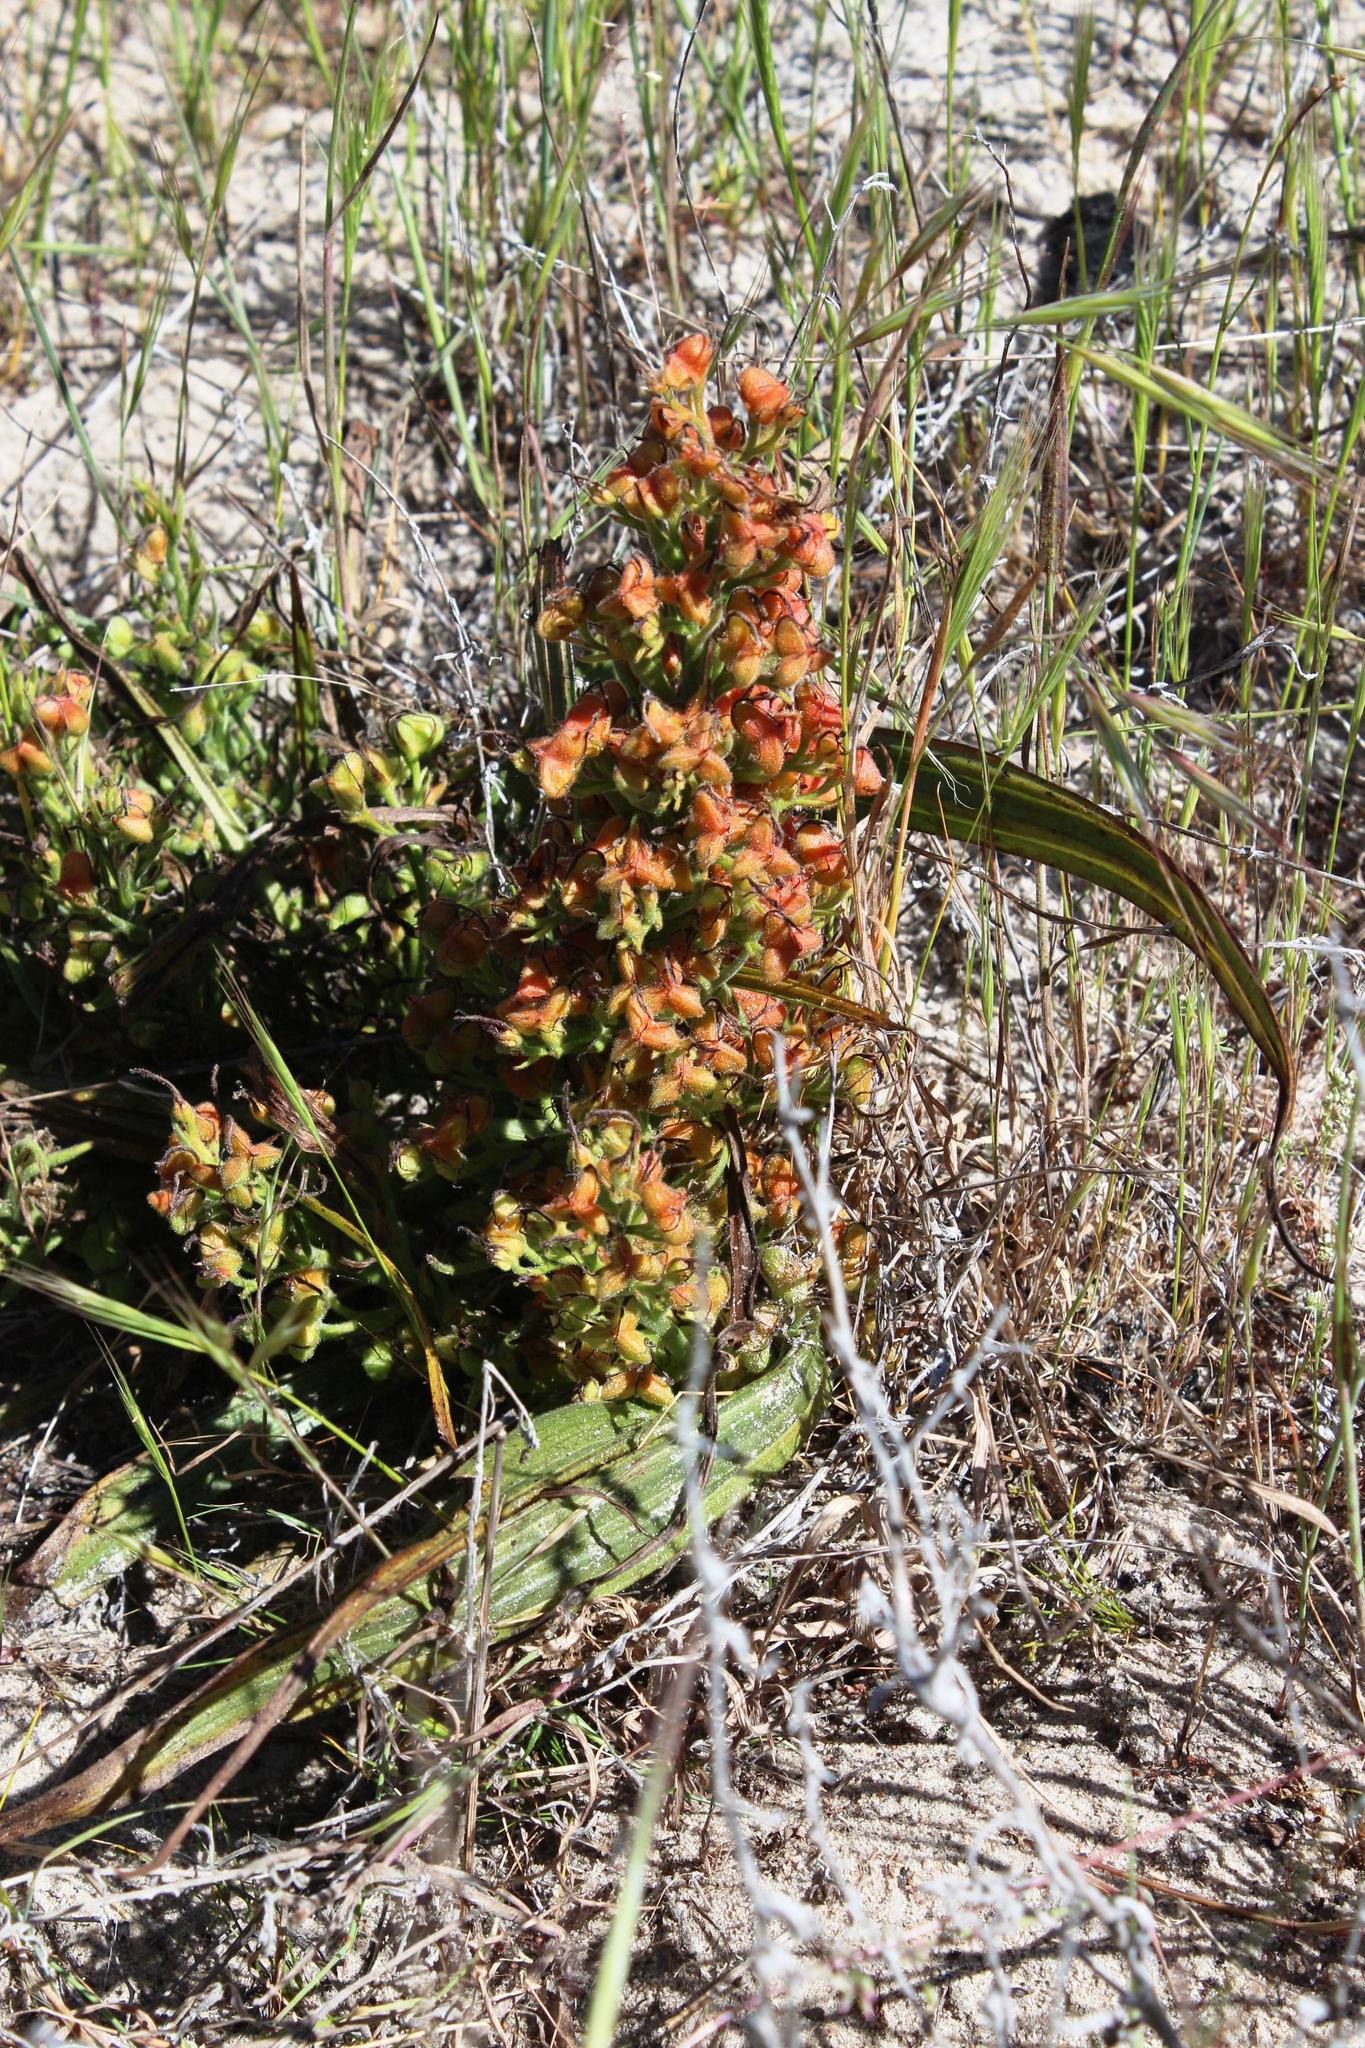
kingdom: Plantae
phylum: Tracheophyta
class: Liliopsida
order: Commelinales
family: Haemodoraceae
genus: Wachendorfia
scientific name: Wachendorfia paniculata
